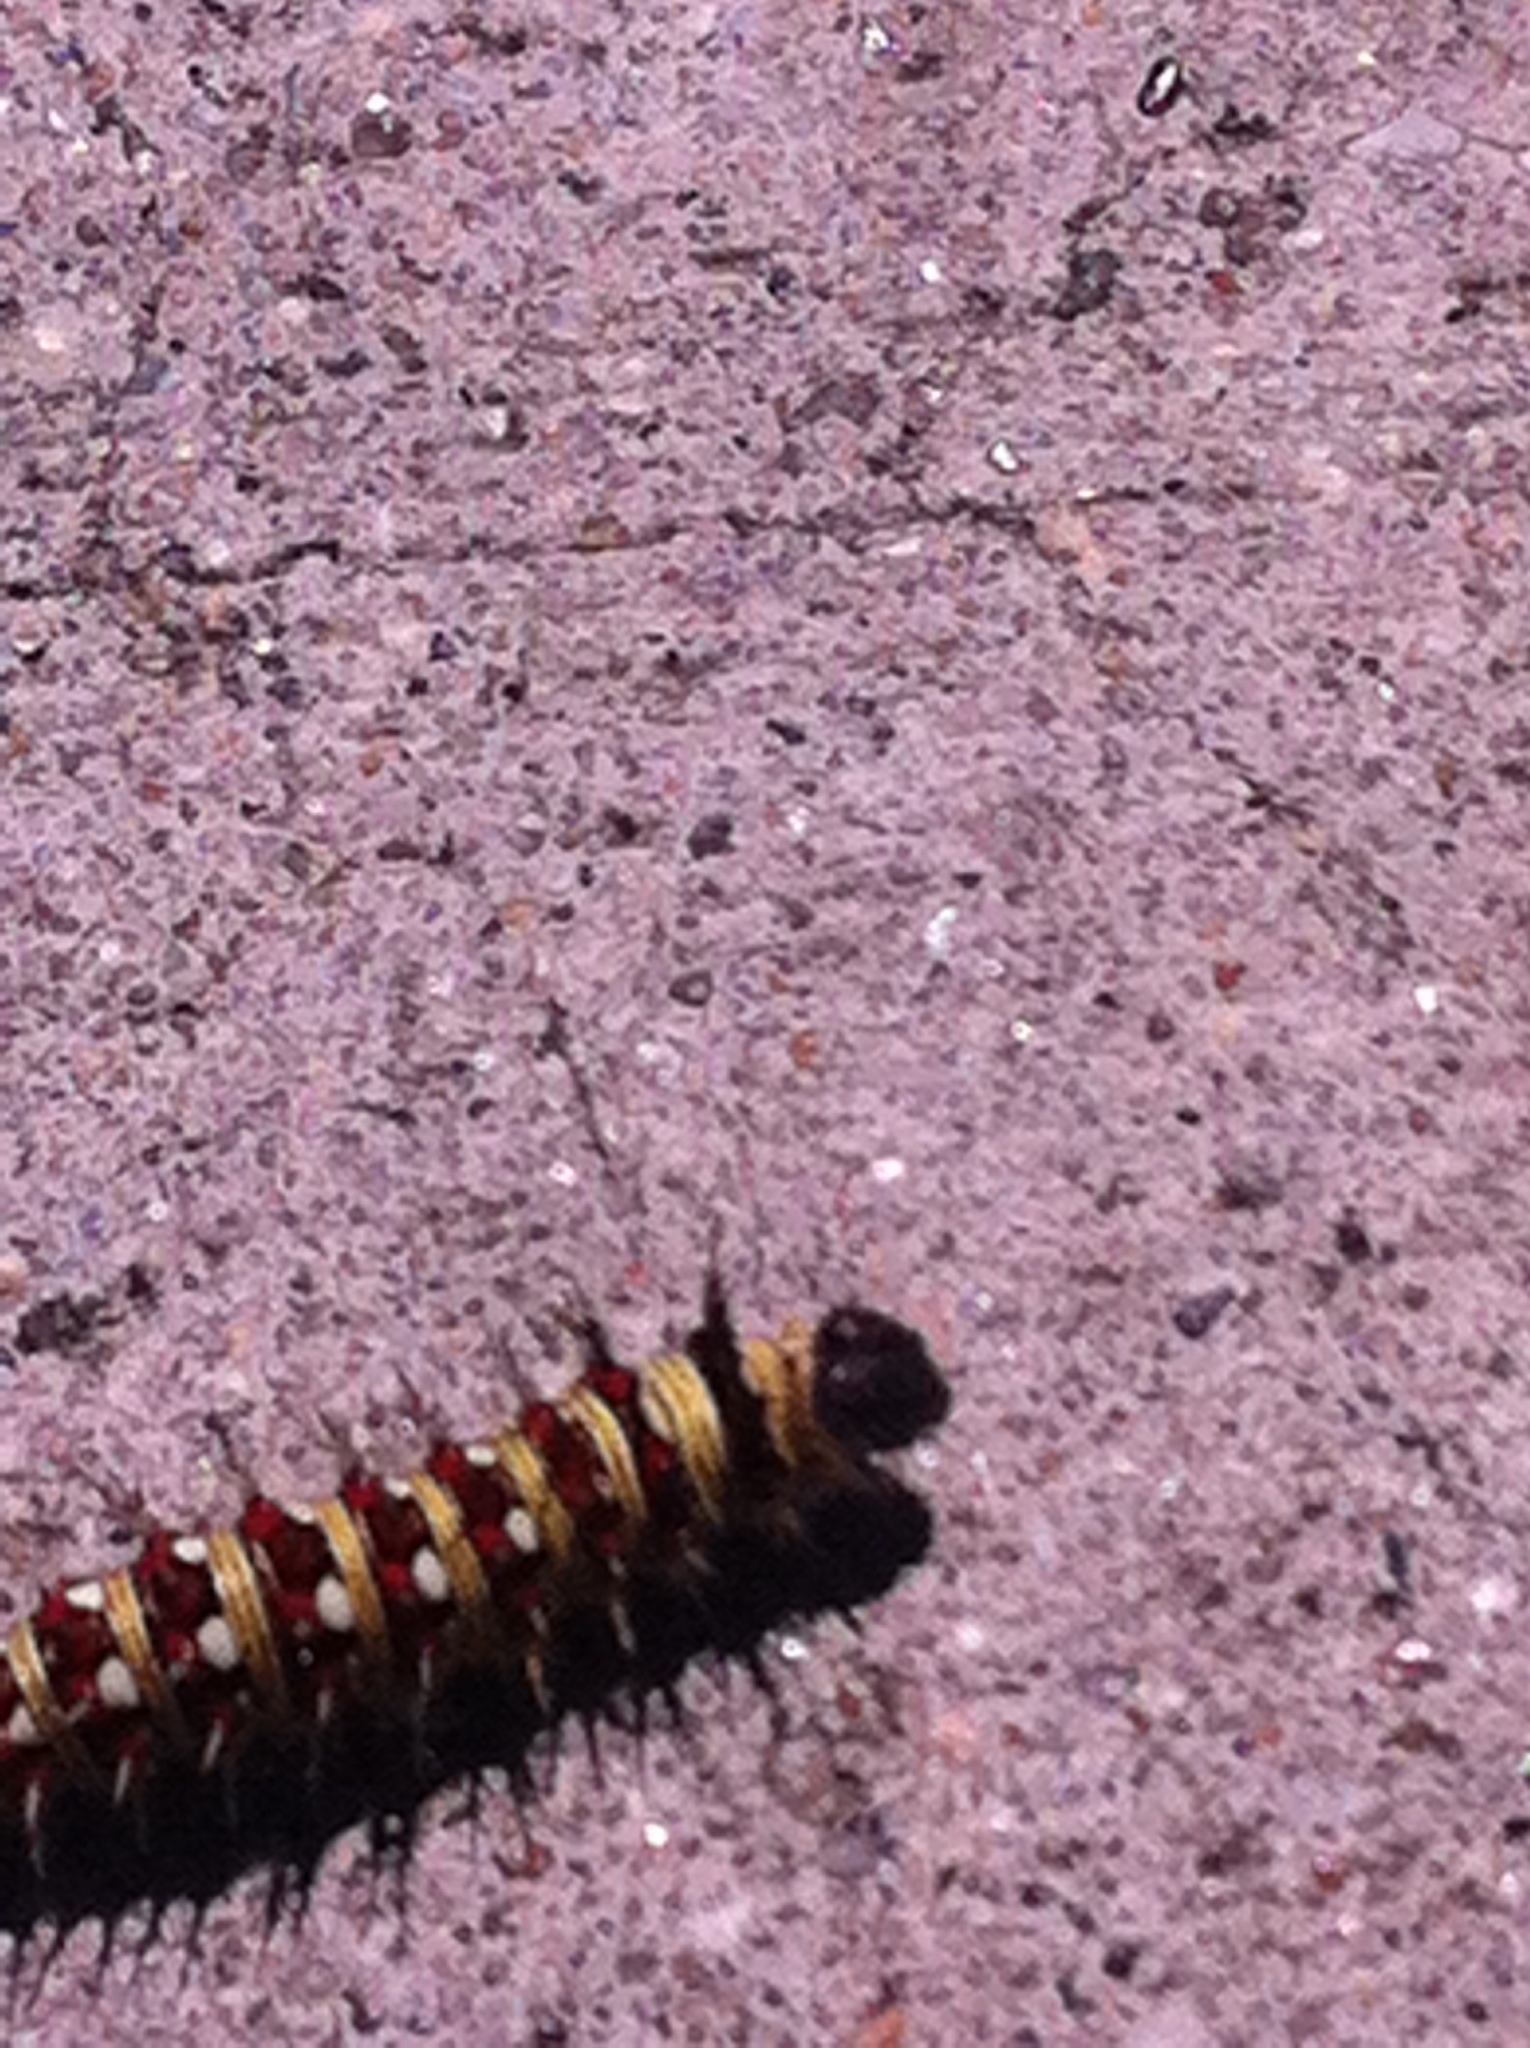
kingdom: Animalia
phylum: Arthropoda
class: Insecta
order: Lepidoptera
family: Nymphalidae
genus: Vanessa
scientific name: Vanessa virginiensis
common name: American lady
